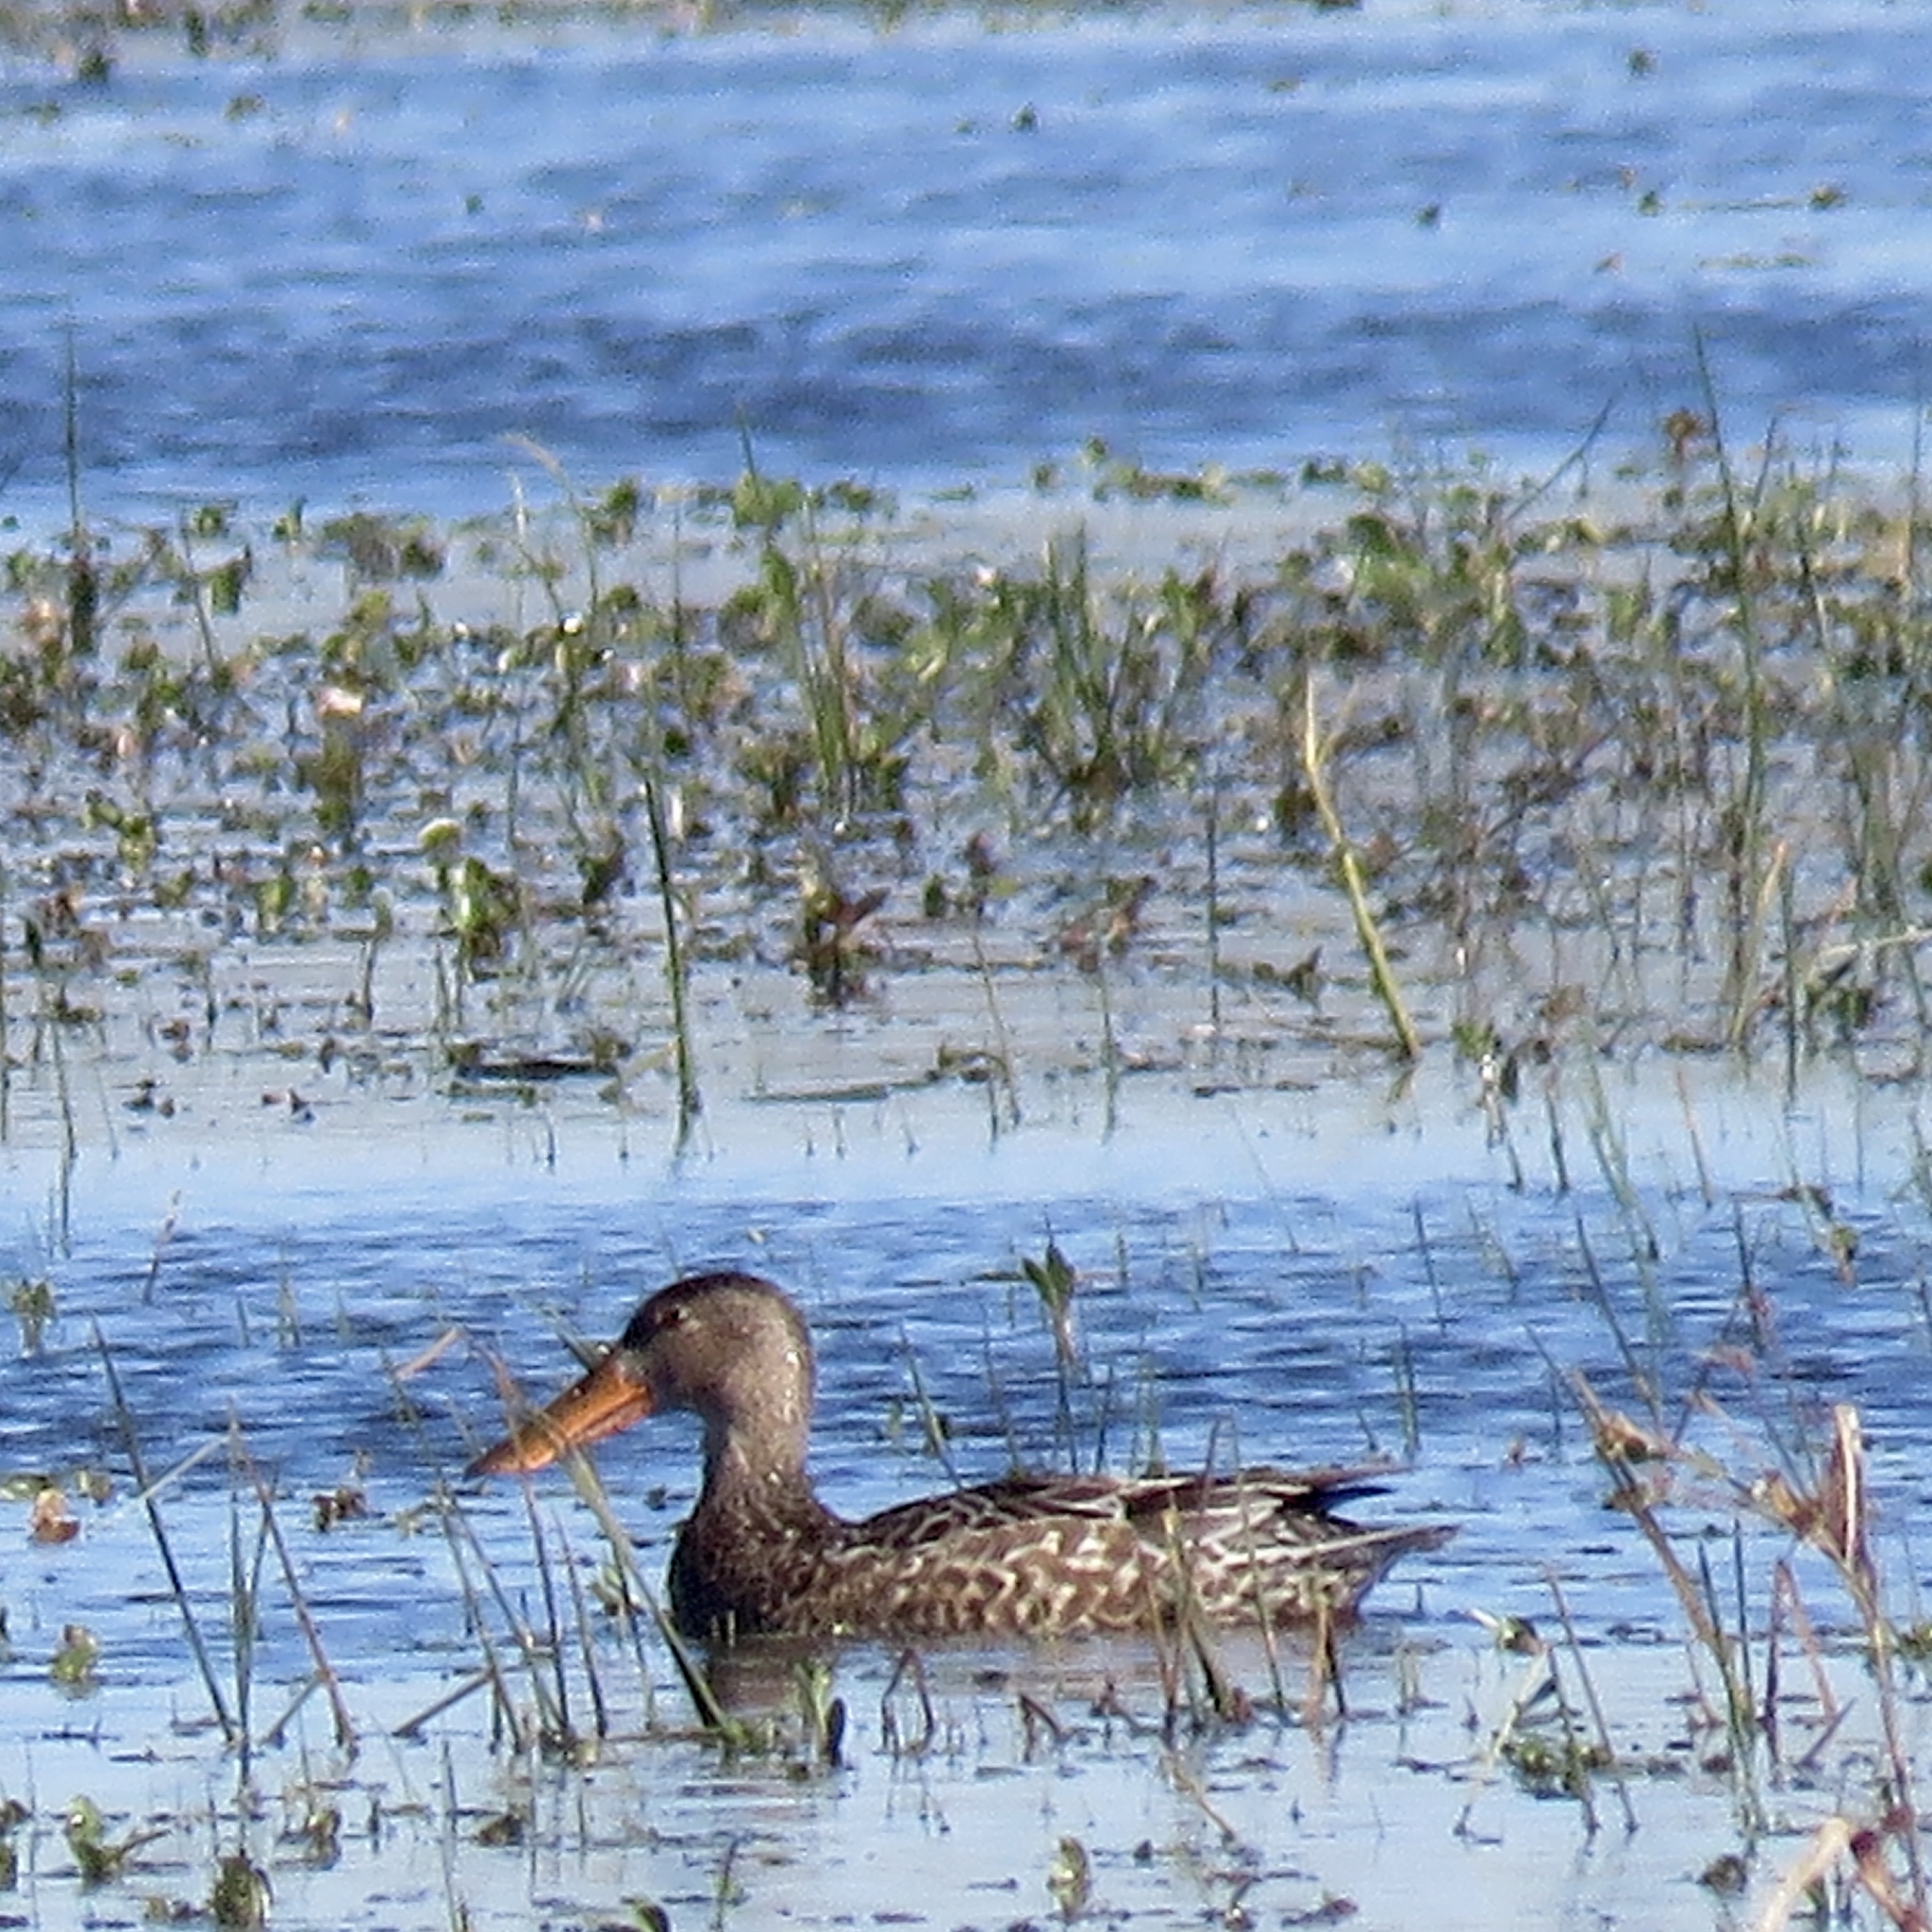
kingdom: Animalia
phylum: Chordata
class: Aves
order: Anseriformes
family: Anatidae
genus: Spatula
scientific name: Spatula clypeata
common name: Northern shoveler
